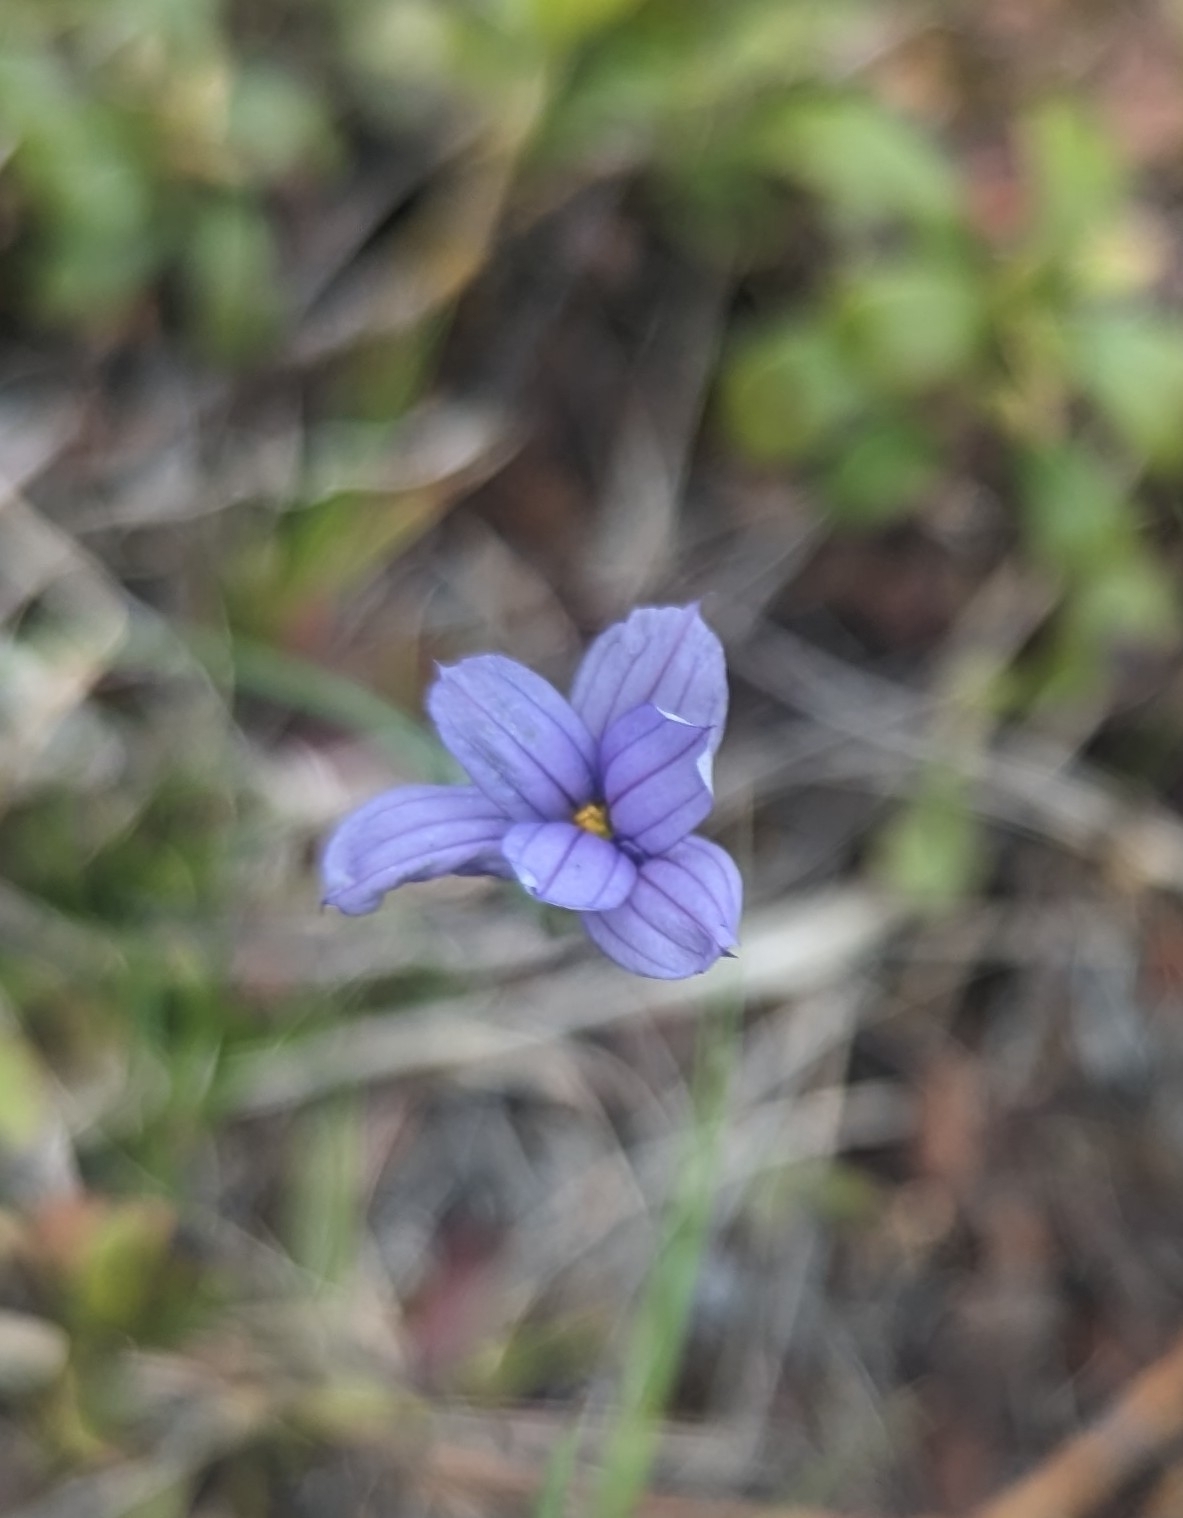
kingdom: Plantae
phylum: Tracheophyta
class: Liliopsida
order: Asparagales
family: Iridaceae
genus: Sisyrinchium
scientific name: Sisyrinchium montanum
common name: American blue-eyed-grass
